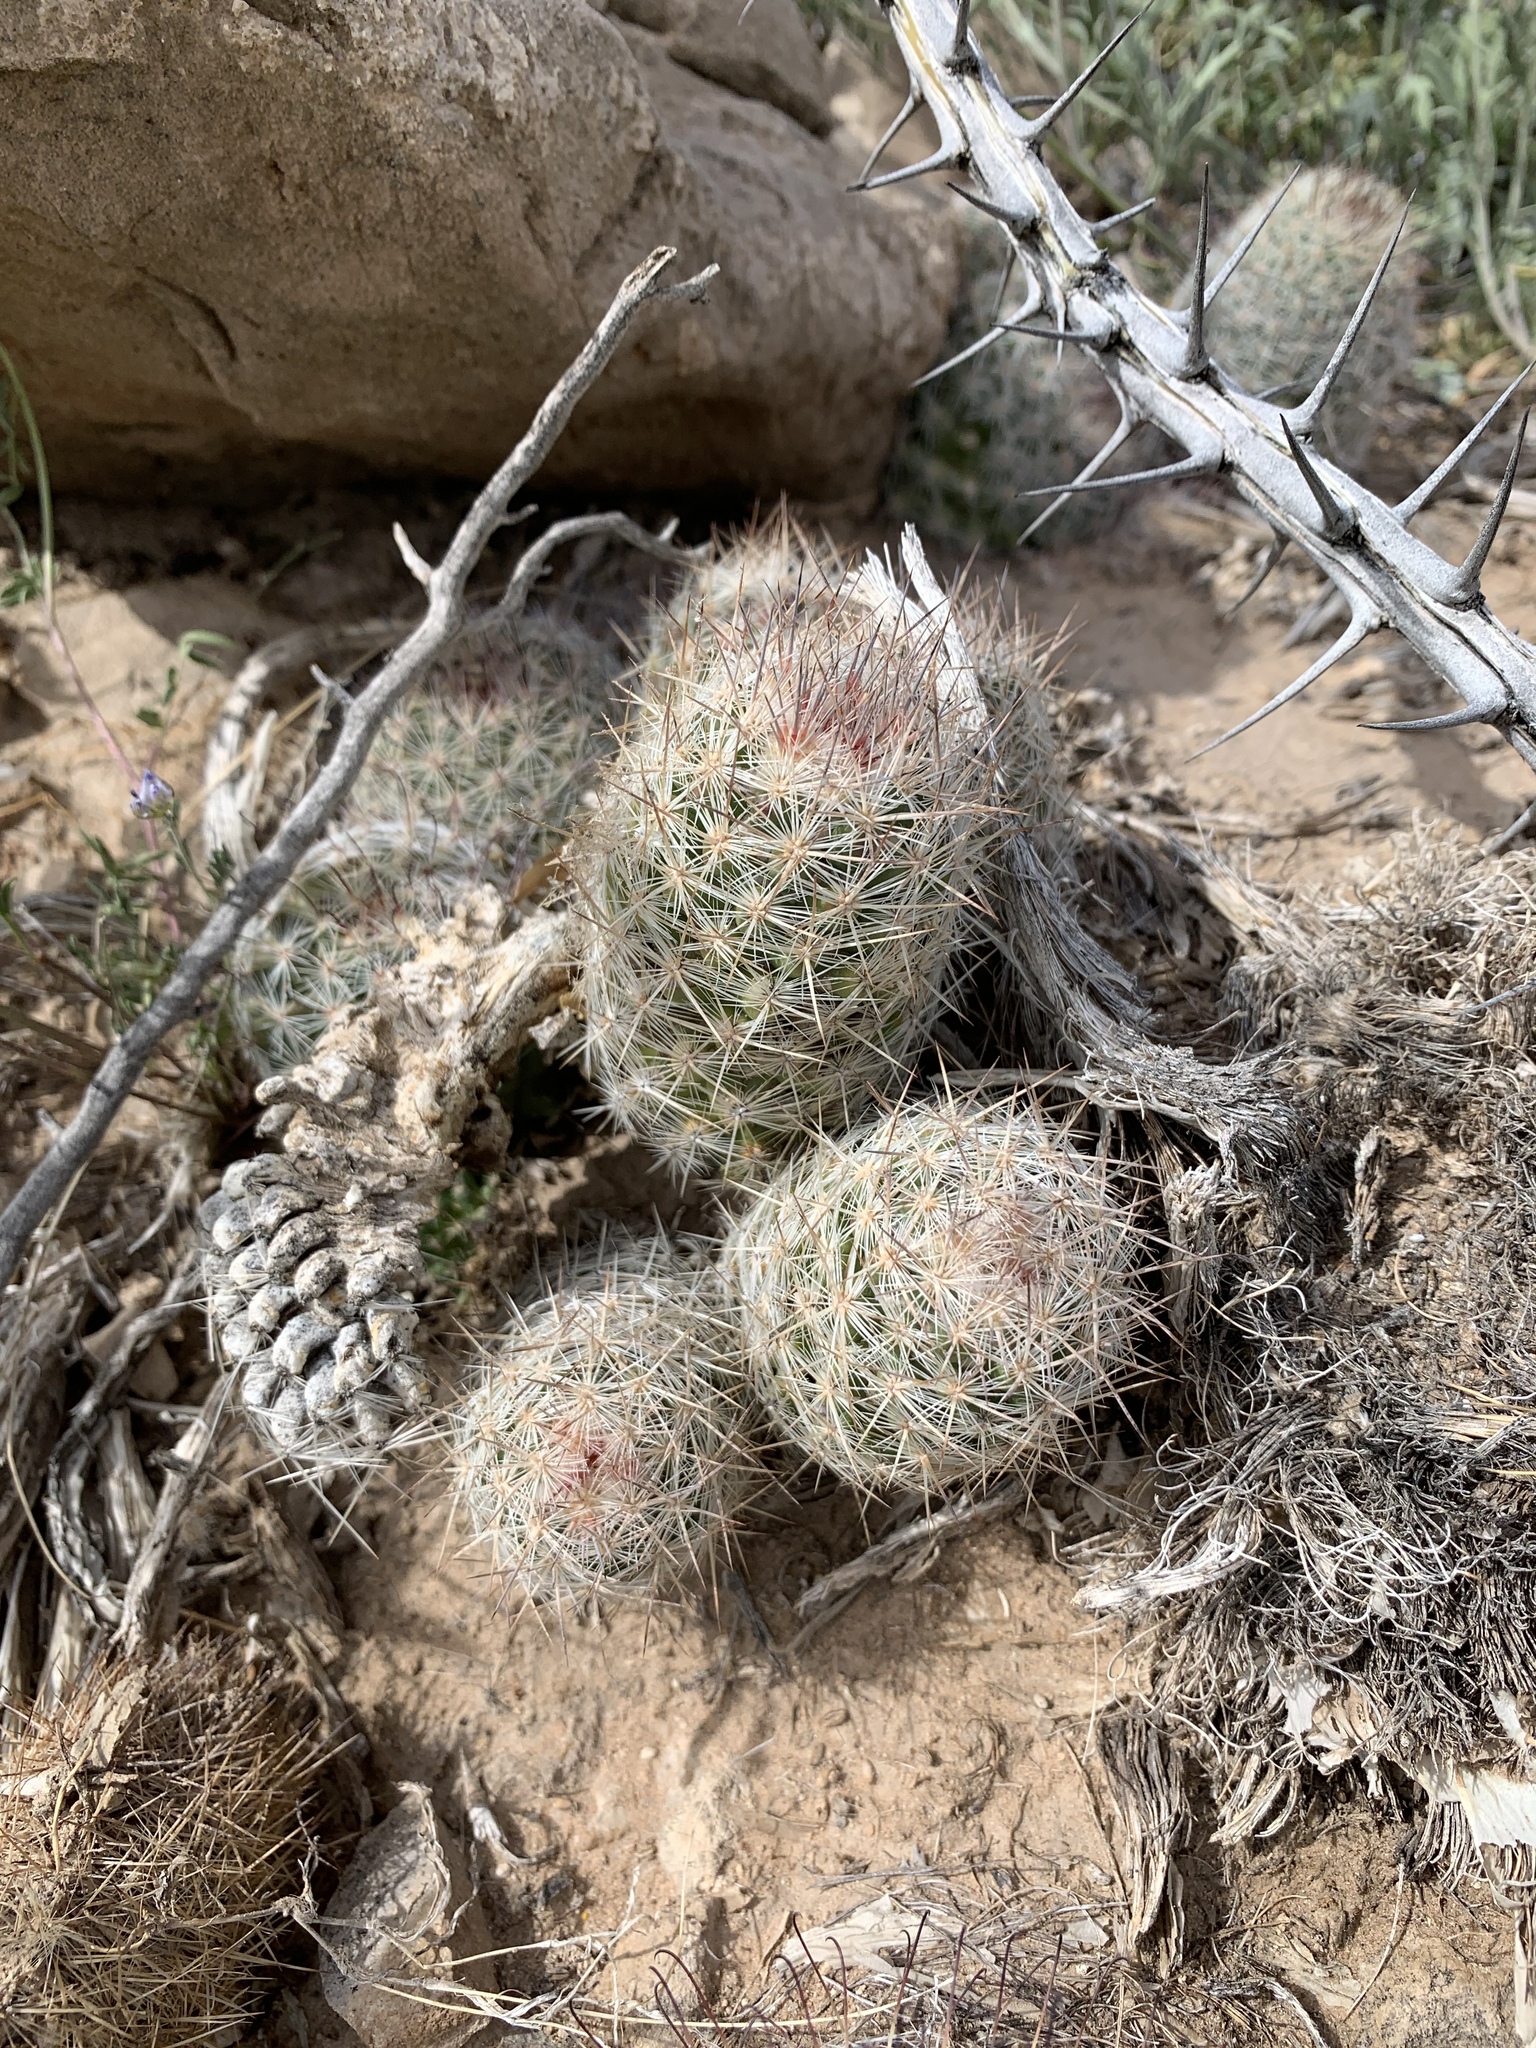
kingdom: Plantae
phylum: Tracheophyta
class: Magnoliopsida
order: Caryophyllales
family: Cactaceae
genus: Pelecyphora
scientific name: Pelecyphora tuberculosa
